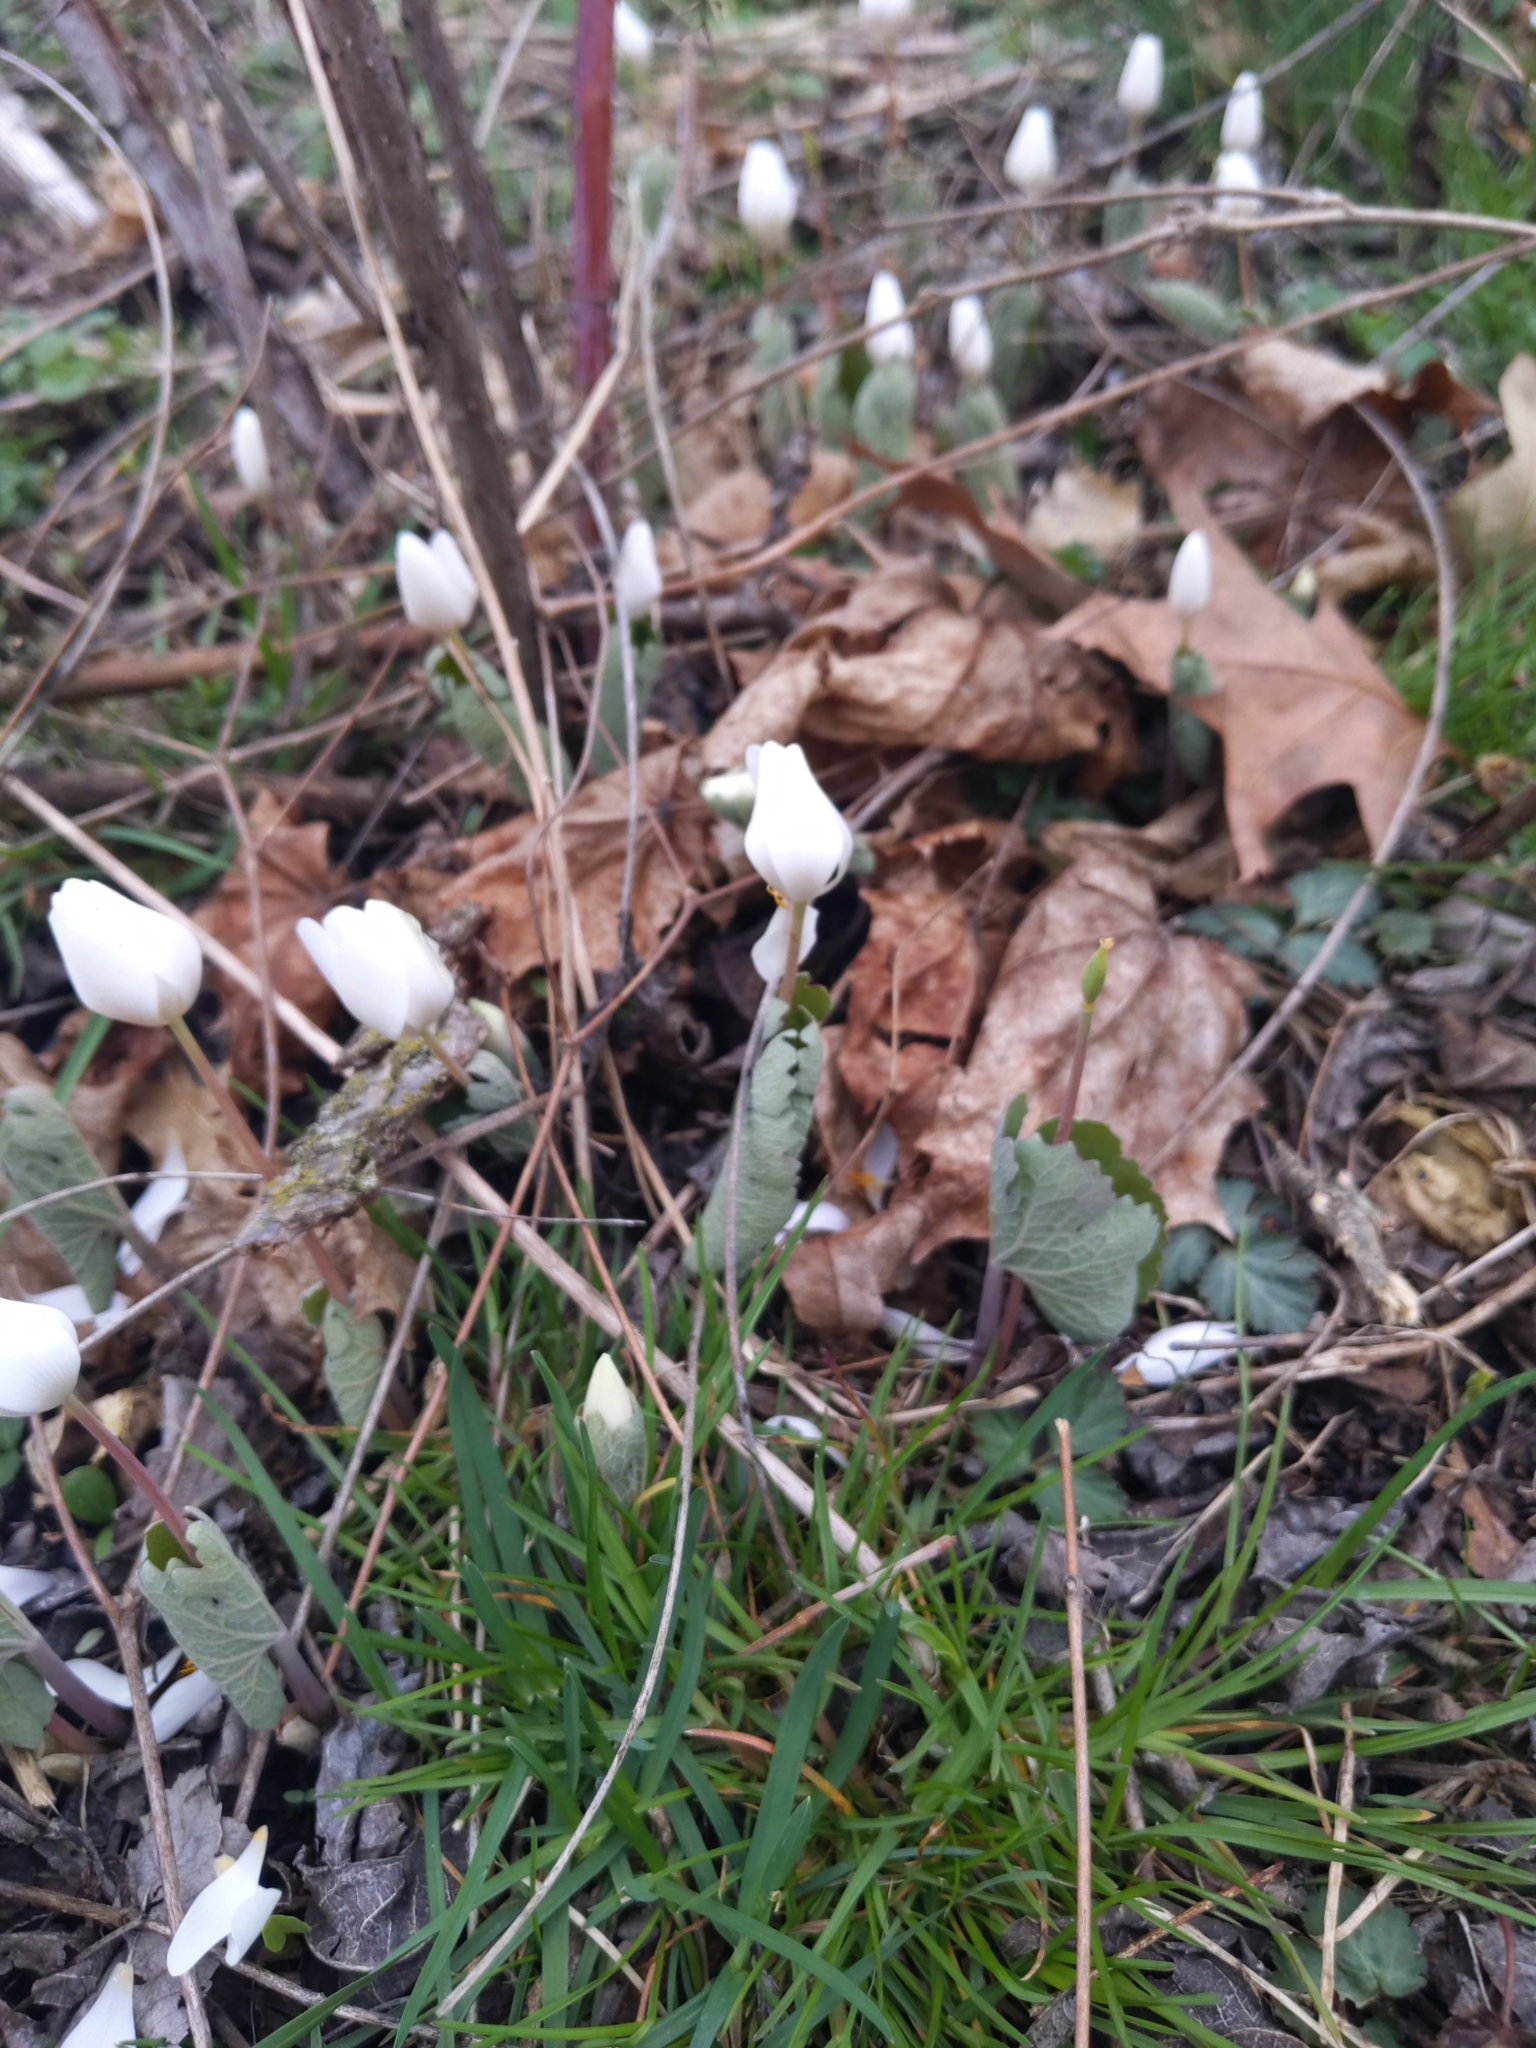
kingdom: Plantae
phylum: Tracheophyta
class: Magnoliopsida
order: Ranunculales
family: Papaveraceae
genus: Sanguinaria
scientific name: Sanguinaria canadensis
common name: Bloodroot
